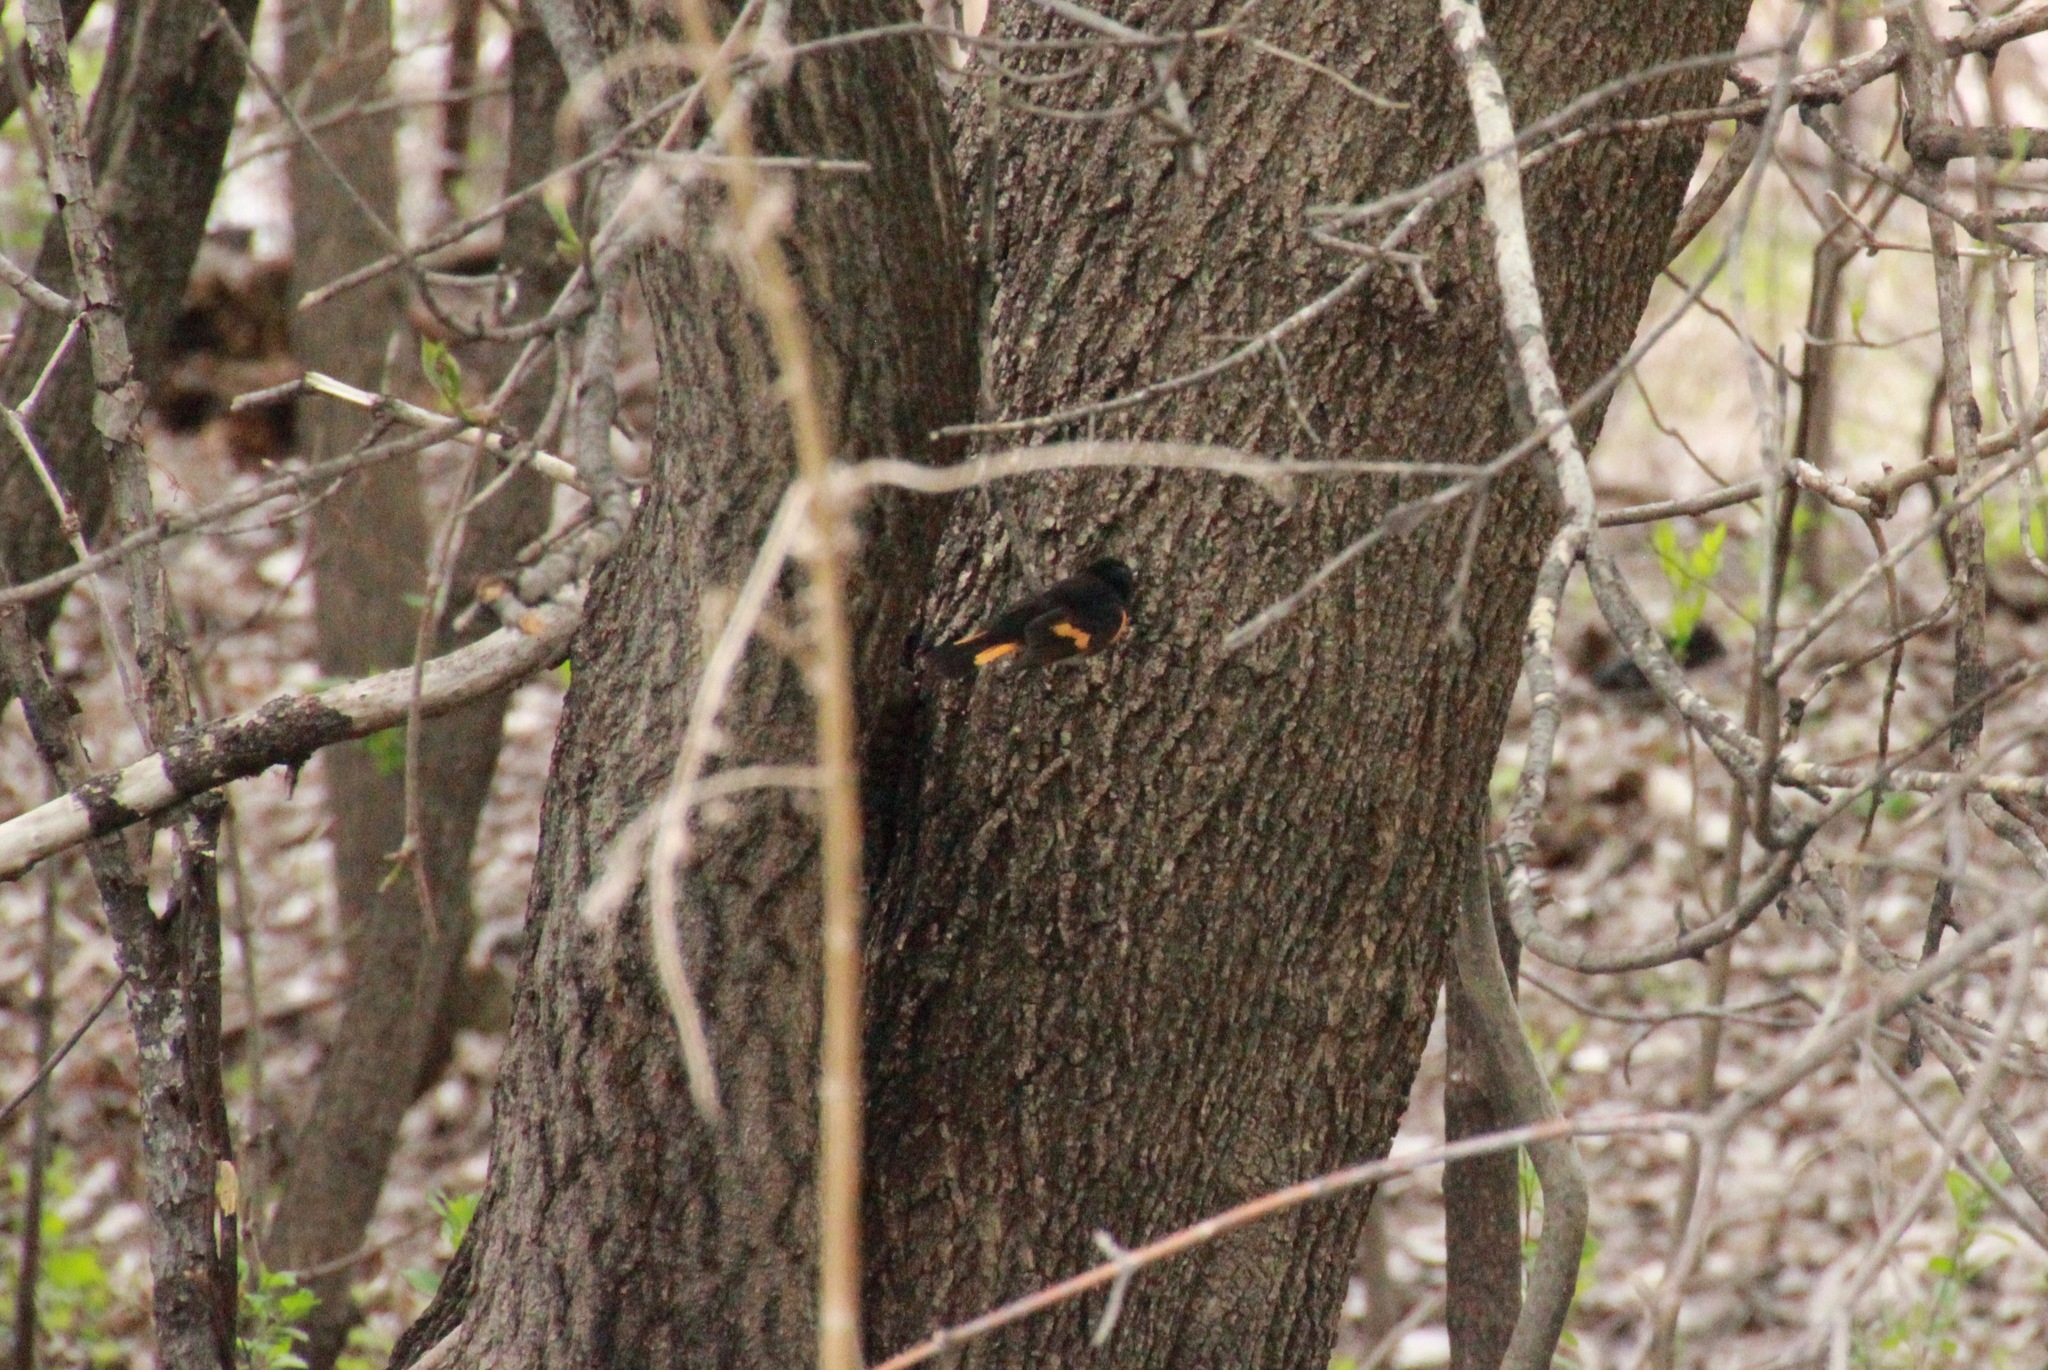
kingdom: Animalia
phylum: Chordata
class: Aves
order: Passeriformes
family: Parulidae
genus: Setophaga
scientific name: Setophaga ruticilla
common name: American redstart
